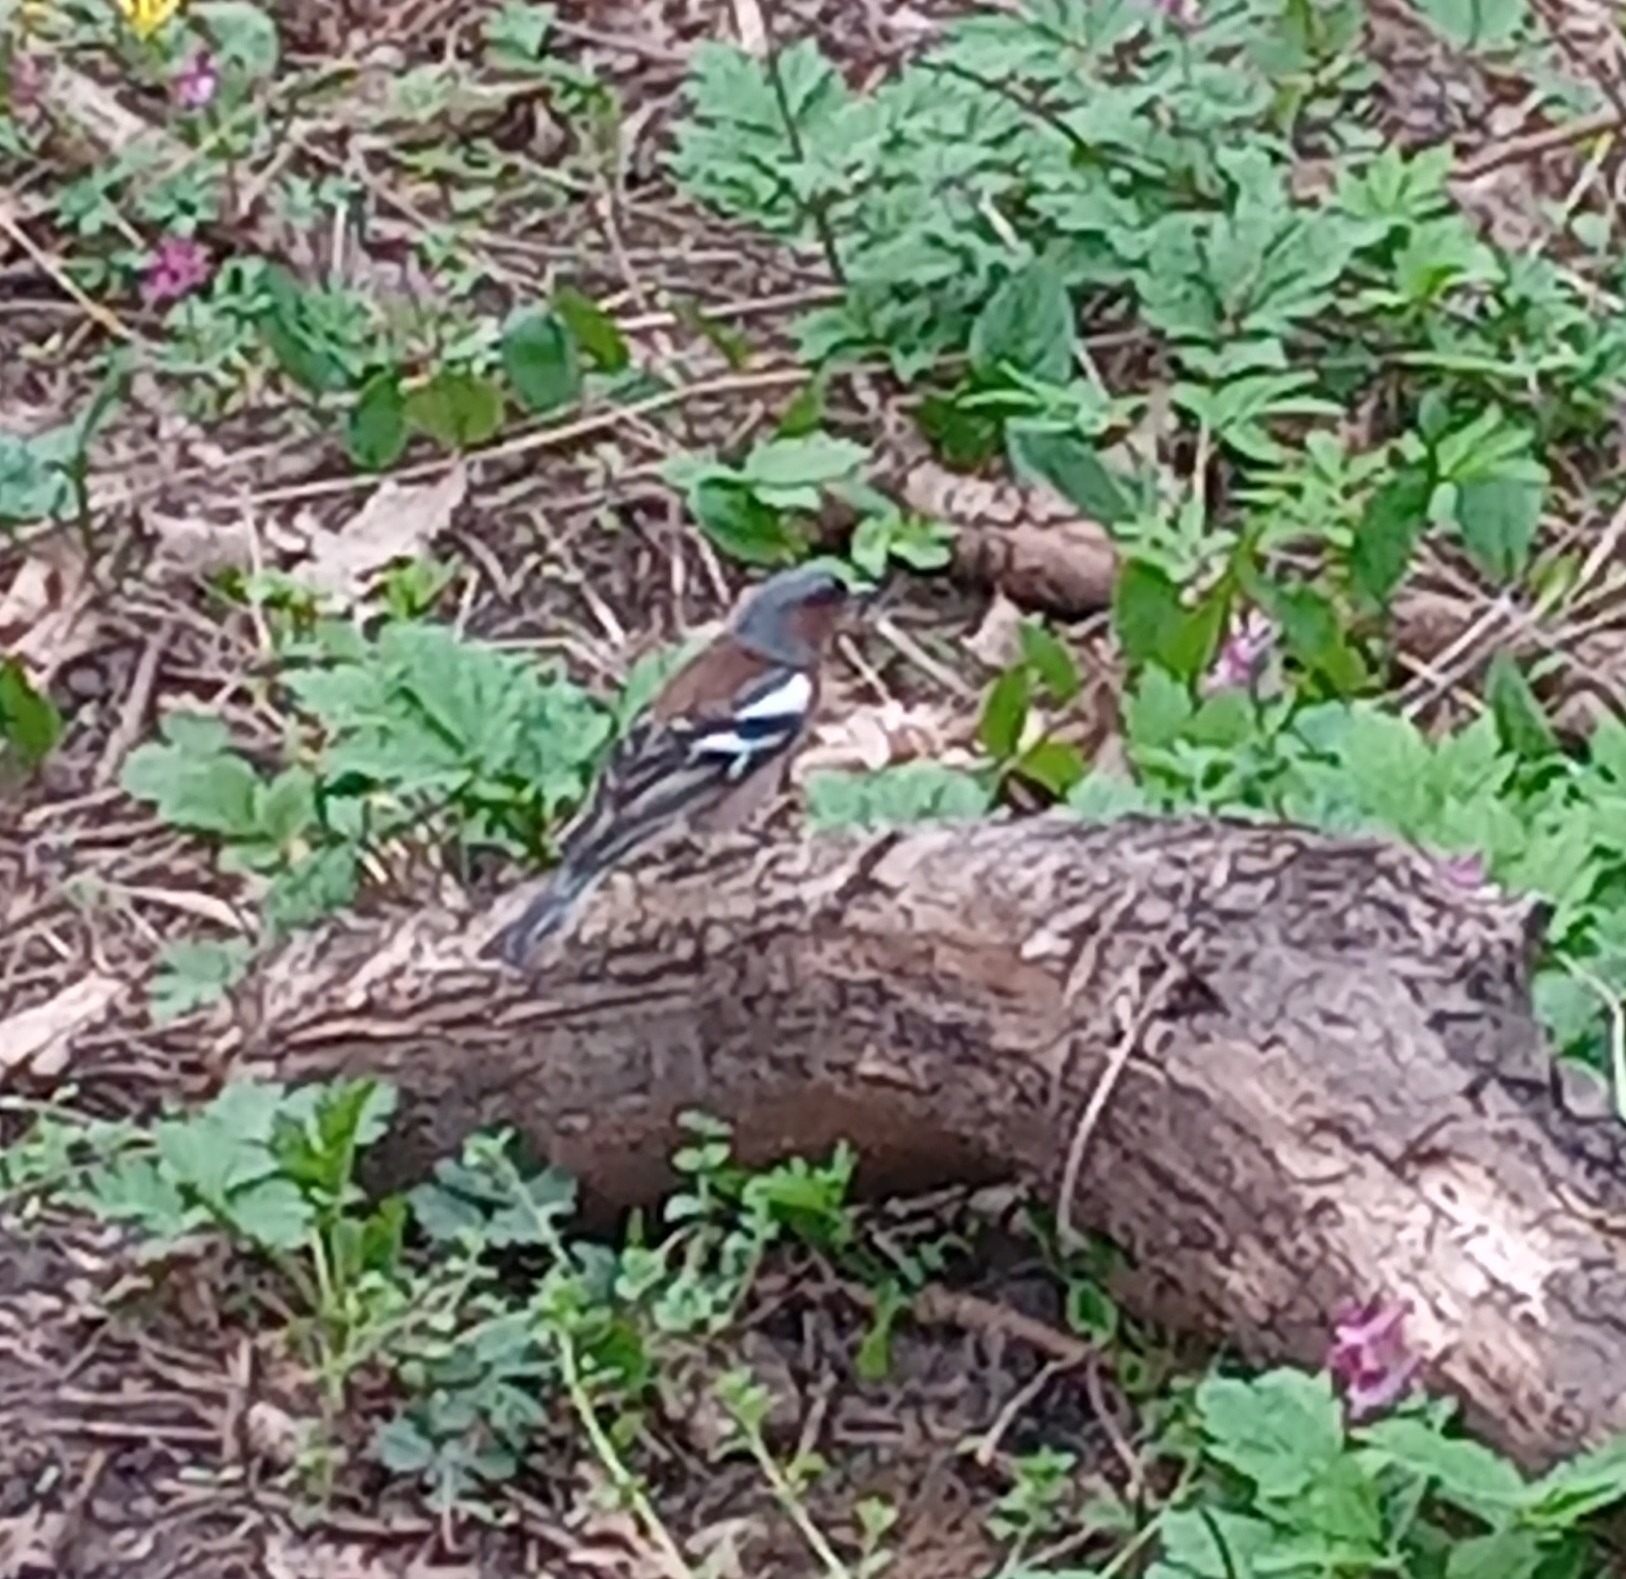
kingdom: Animalia
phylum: Chordata
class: Aves
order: Passeriformes
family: Fringillidae
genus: Fringilla
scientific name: Fringilla coelebs
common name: Common chaffinch
